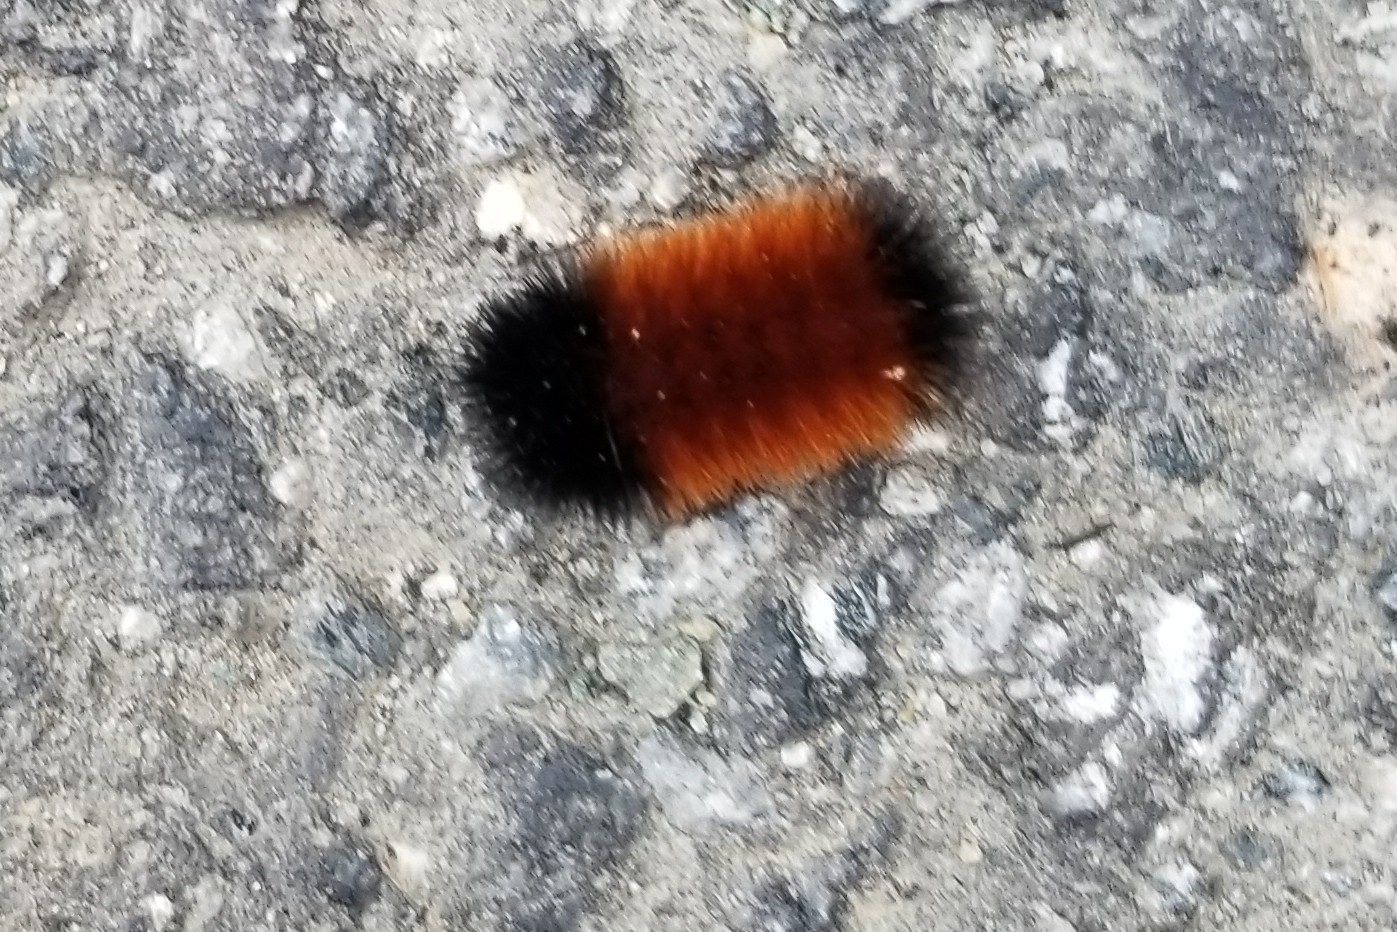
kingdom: Animalia
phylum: Arthropoda
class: Insecta
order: Lepidoptera
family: Erebidae
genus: Pyrrharctia
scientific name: Pyrrharctia isabella
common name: Isabella tiger moth
